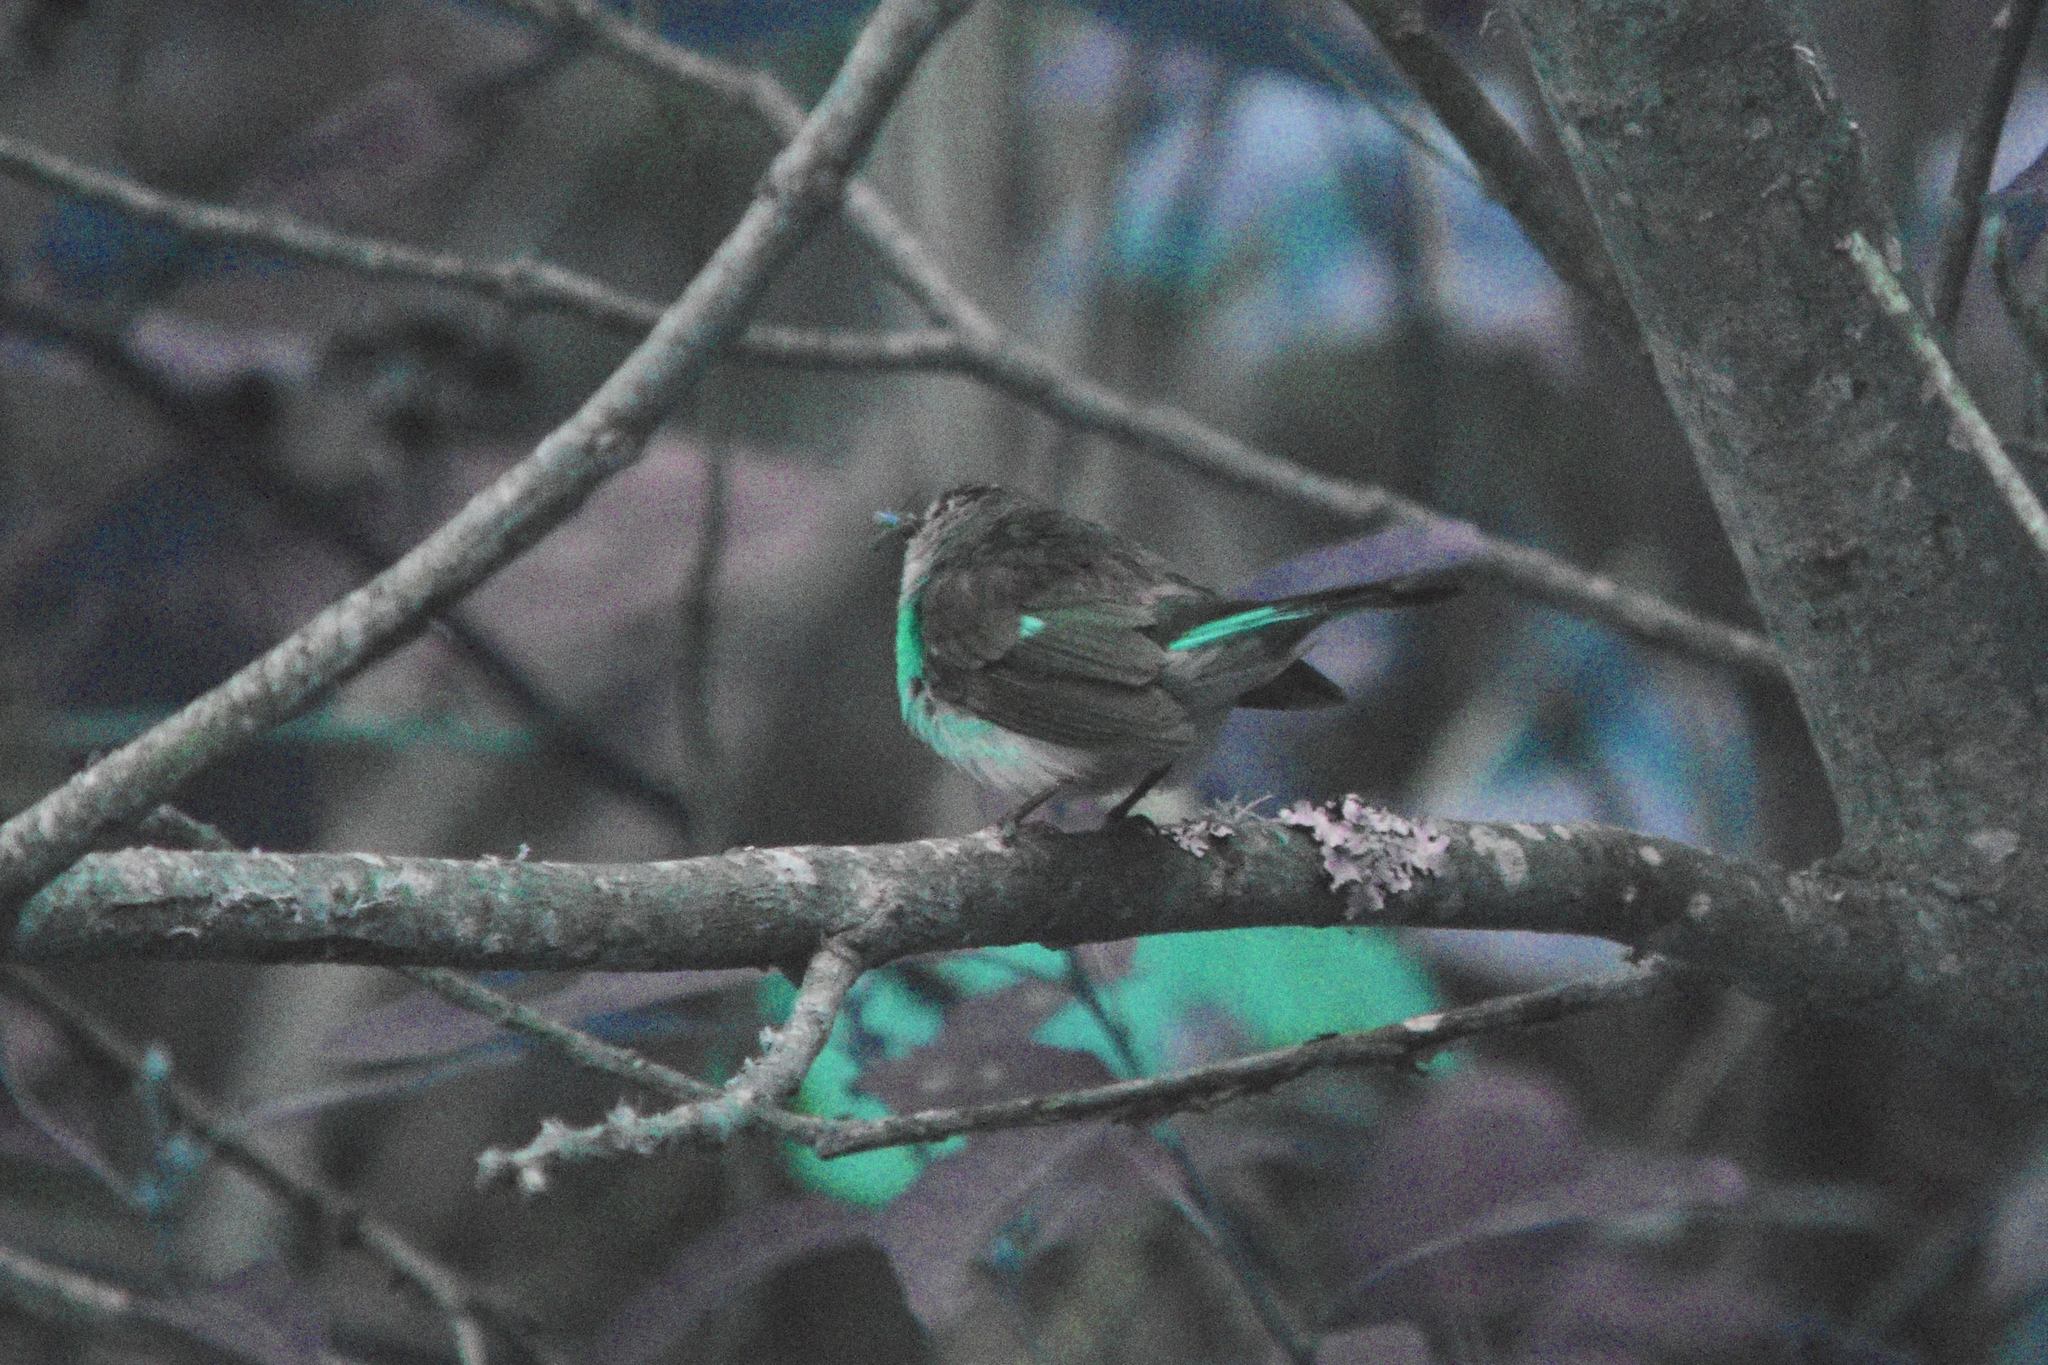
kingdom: Animalia
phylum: Chordata
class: Aves
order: Passeriformes
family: Parulidae
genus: Setophaga
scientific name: Setophaga ruticilla
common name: American redstart
